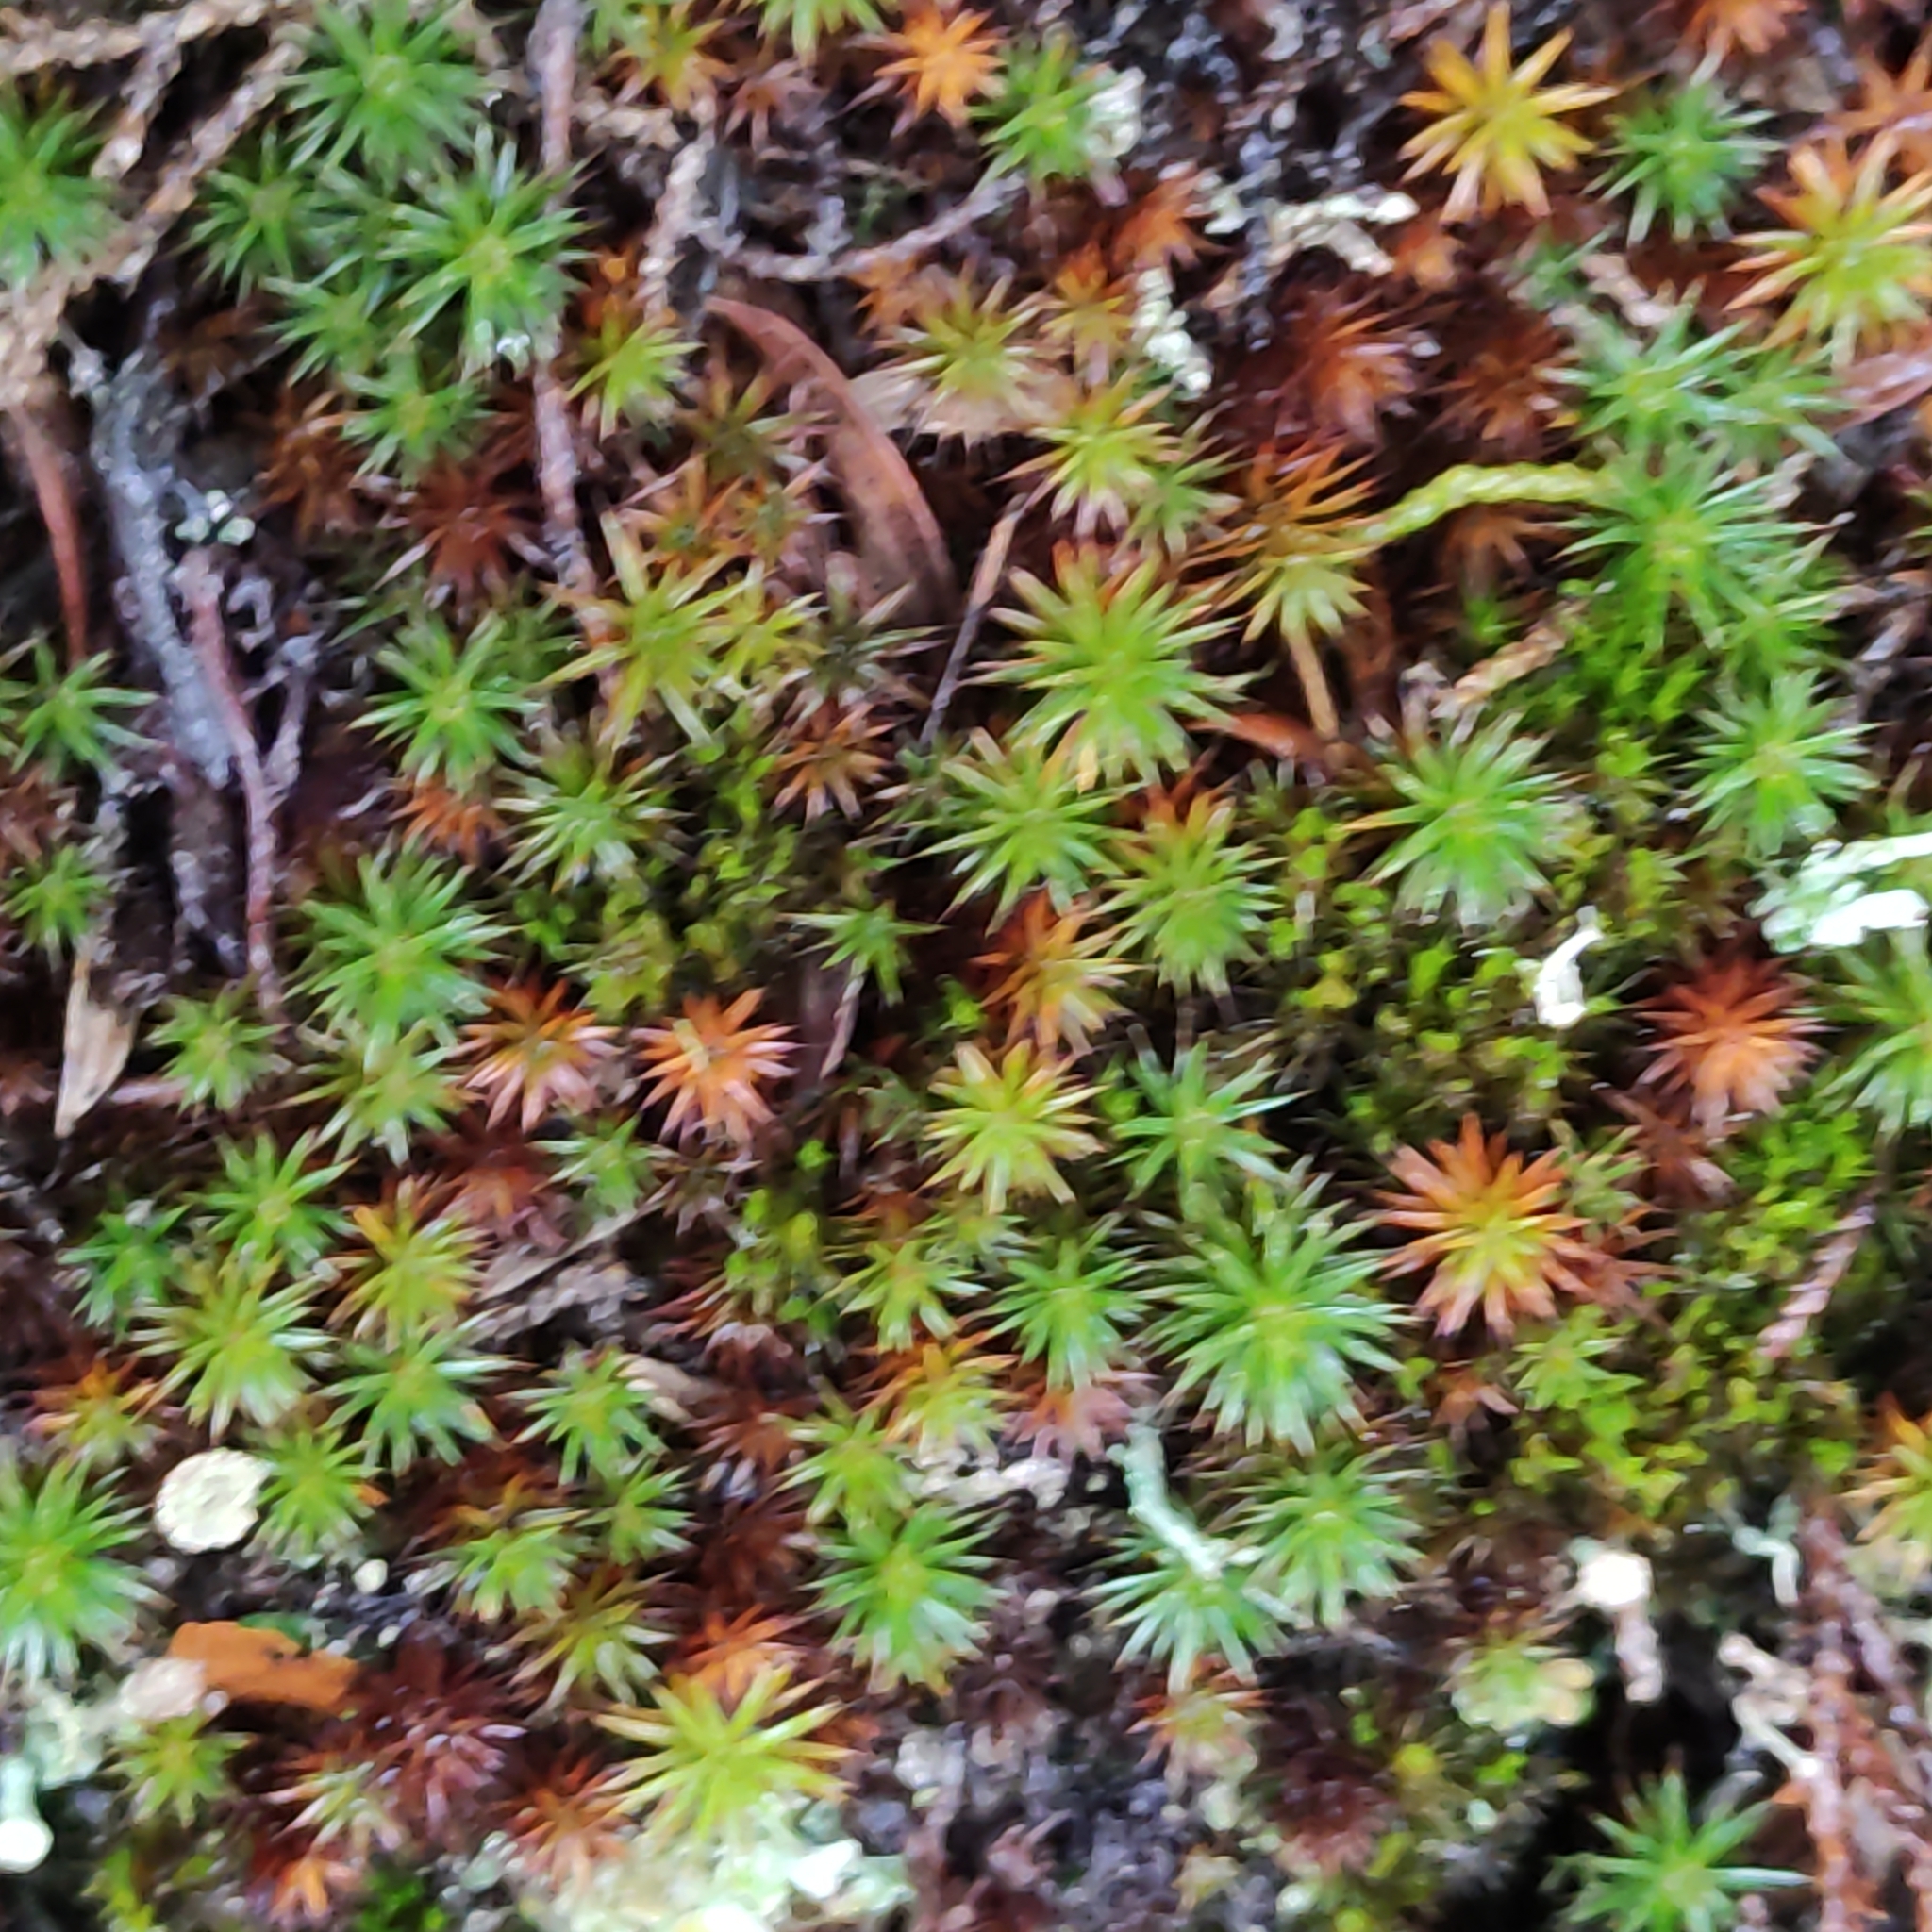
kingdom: Plantae
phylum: Bryophyta
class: Polytrichopsida
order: Polytrichales
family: Polytrichaceae
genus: Polytrichum
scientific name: Polytrichum juniperinum
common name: Juniper haircap moss
